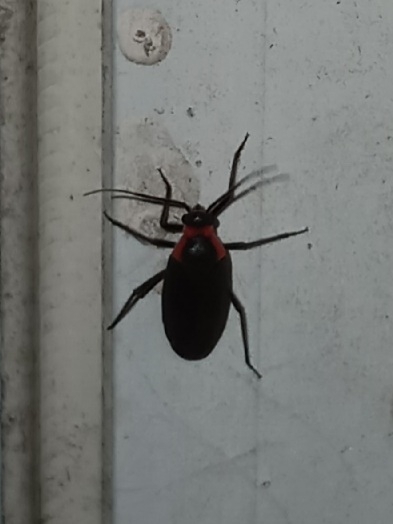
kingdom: Animalia
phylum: Arthropoda
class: Insecta
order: Hemiptera
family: Miridae
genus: Prepops
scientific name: Prepops fraternus
